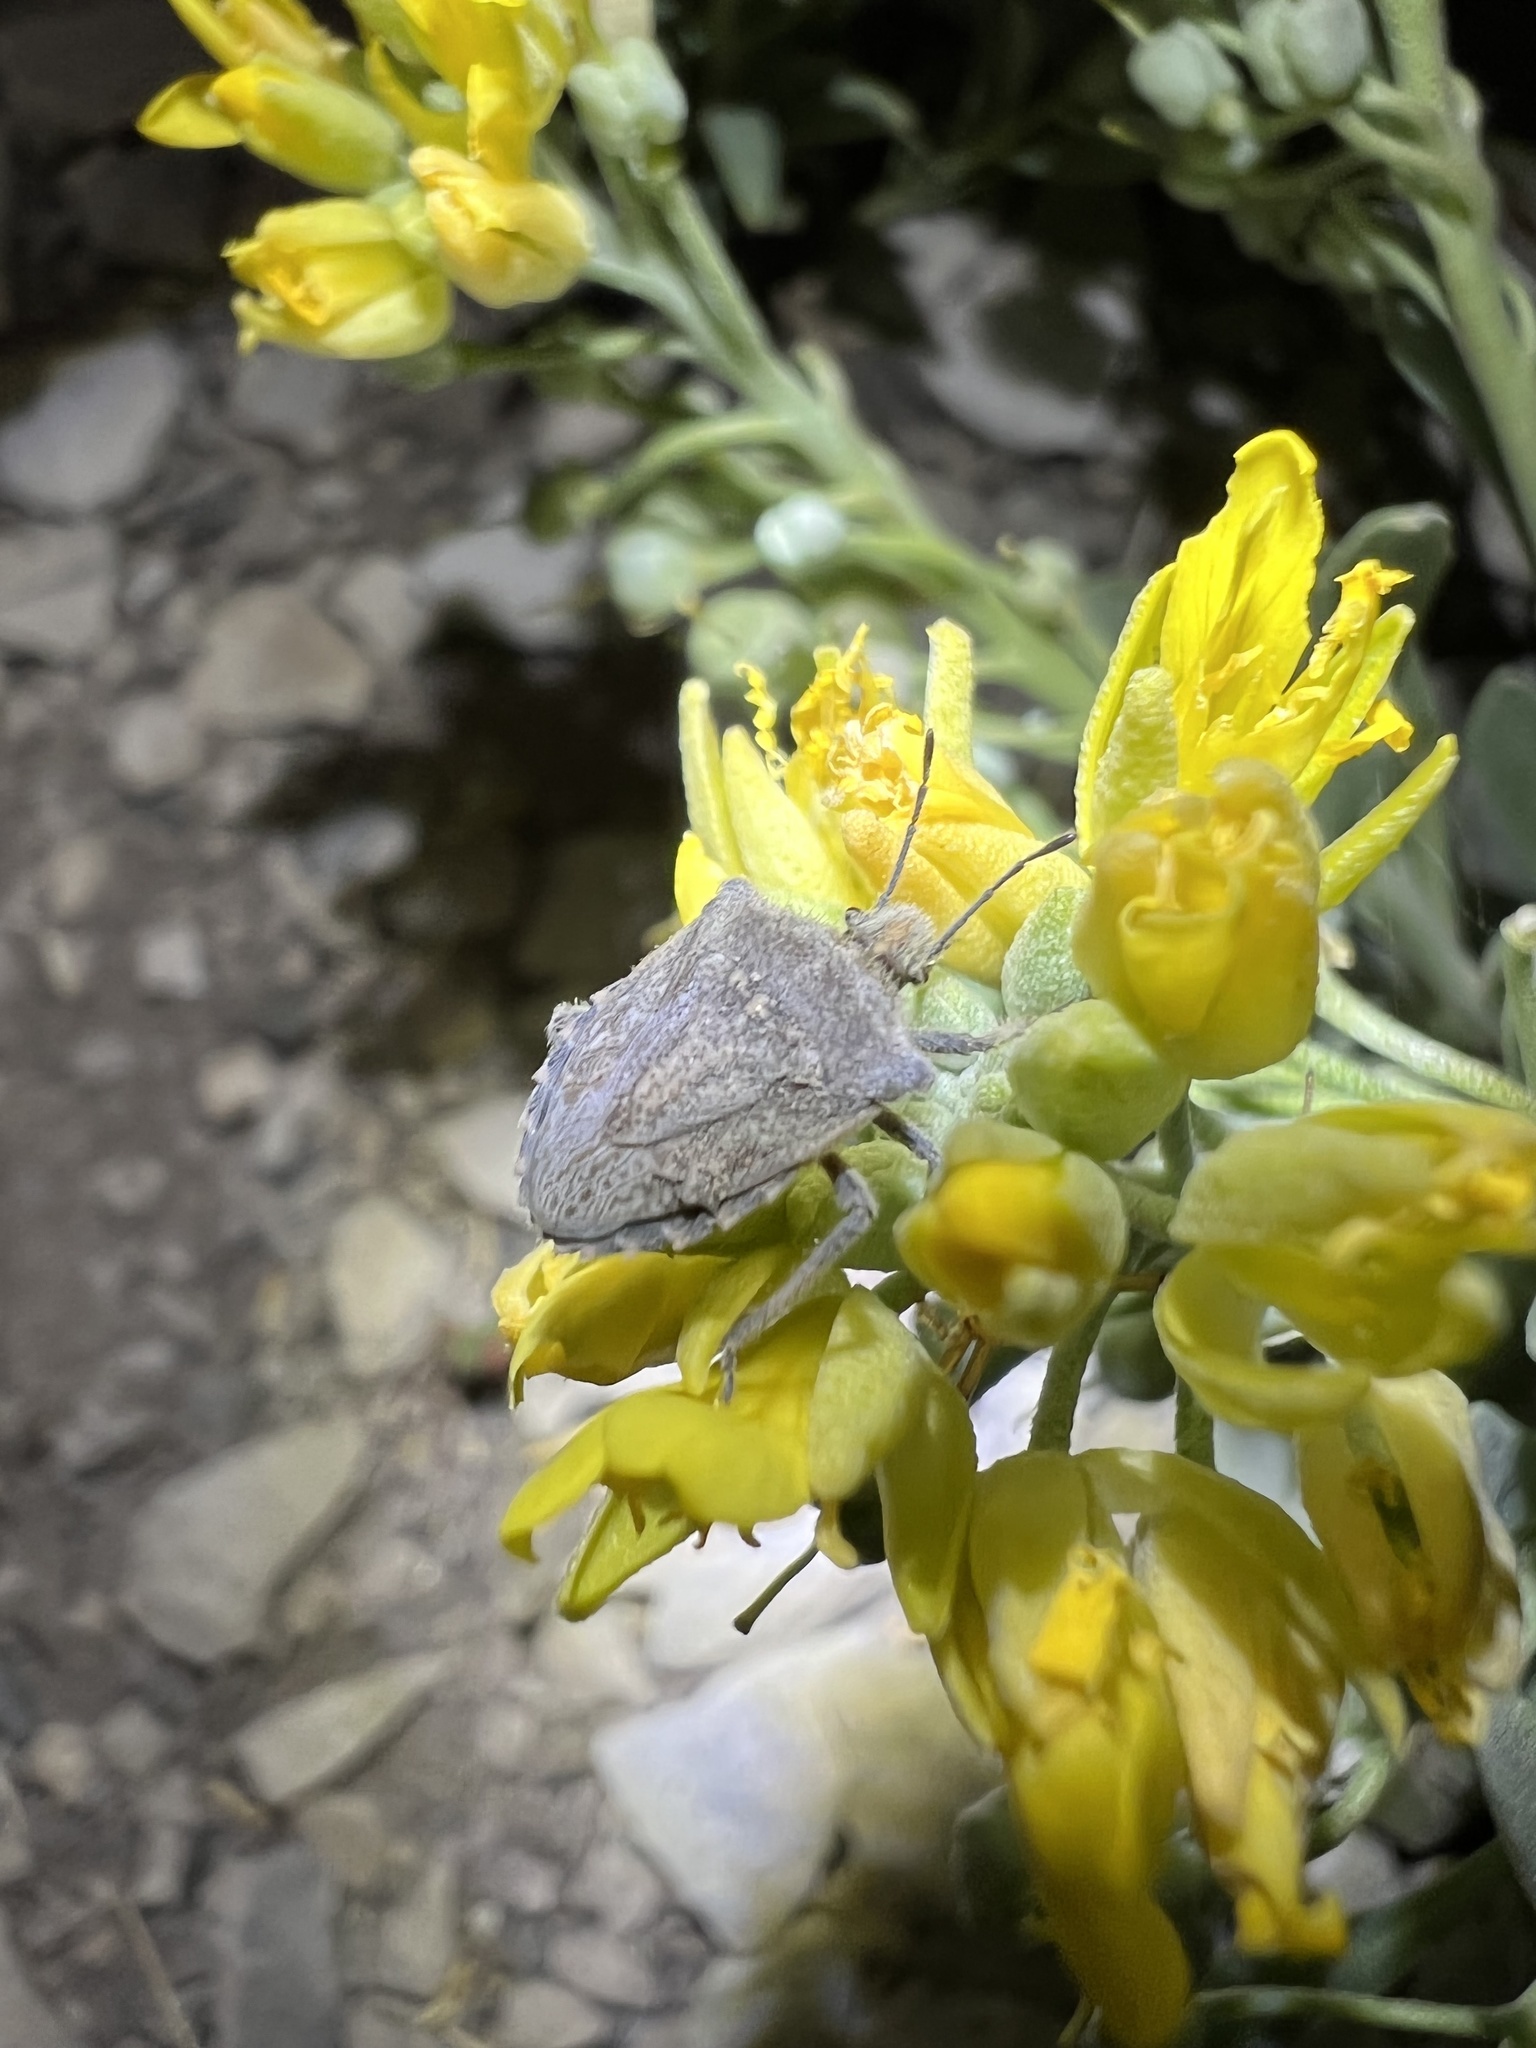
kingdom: Animalia
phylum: Arthropoda
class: Insecta
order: Hemiptera
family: Pentatomidae
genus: Prionosoma
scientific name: Prionosoma podopioides
